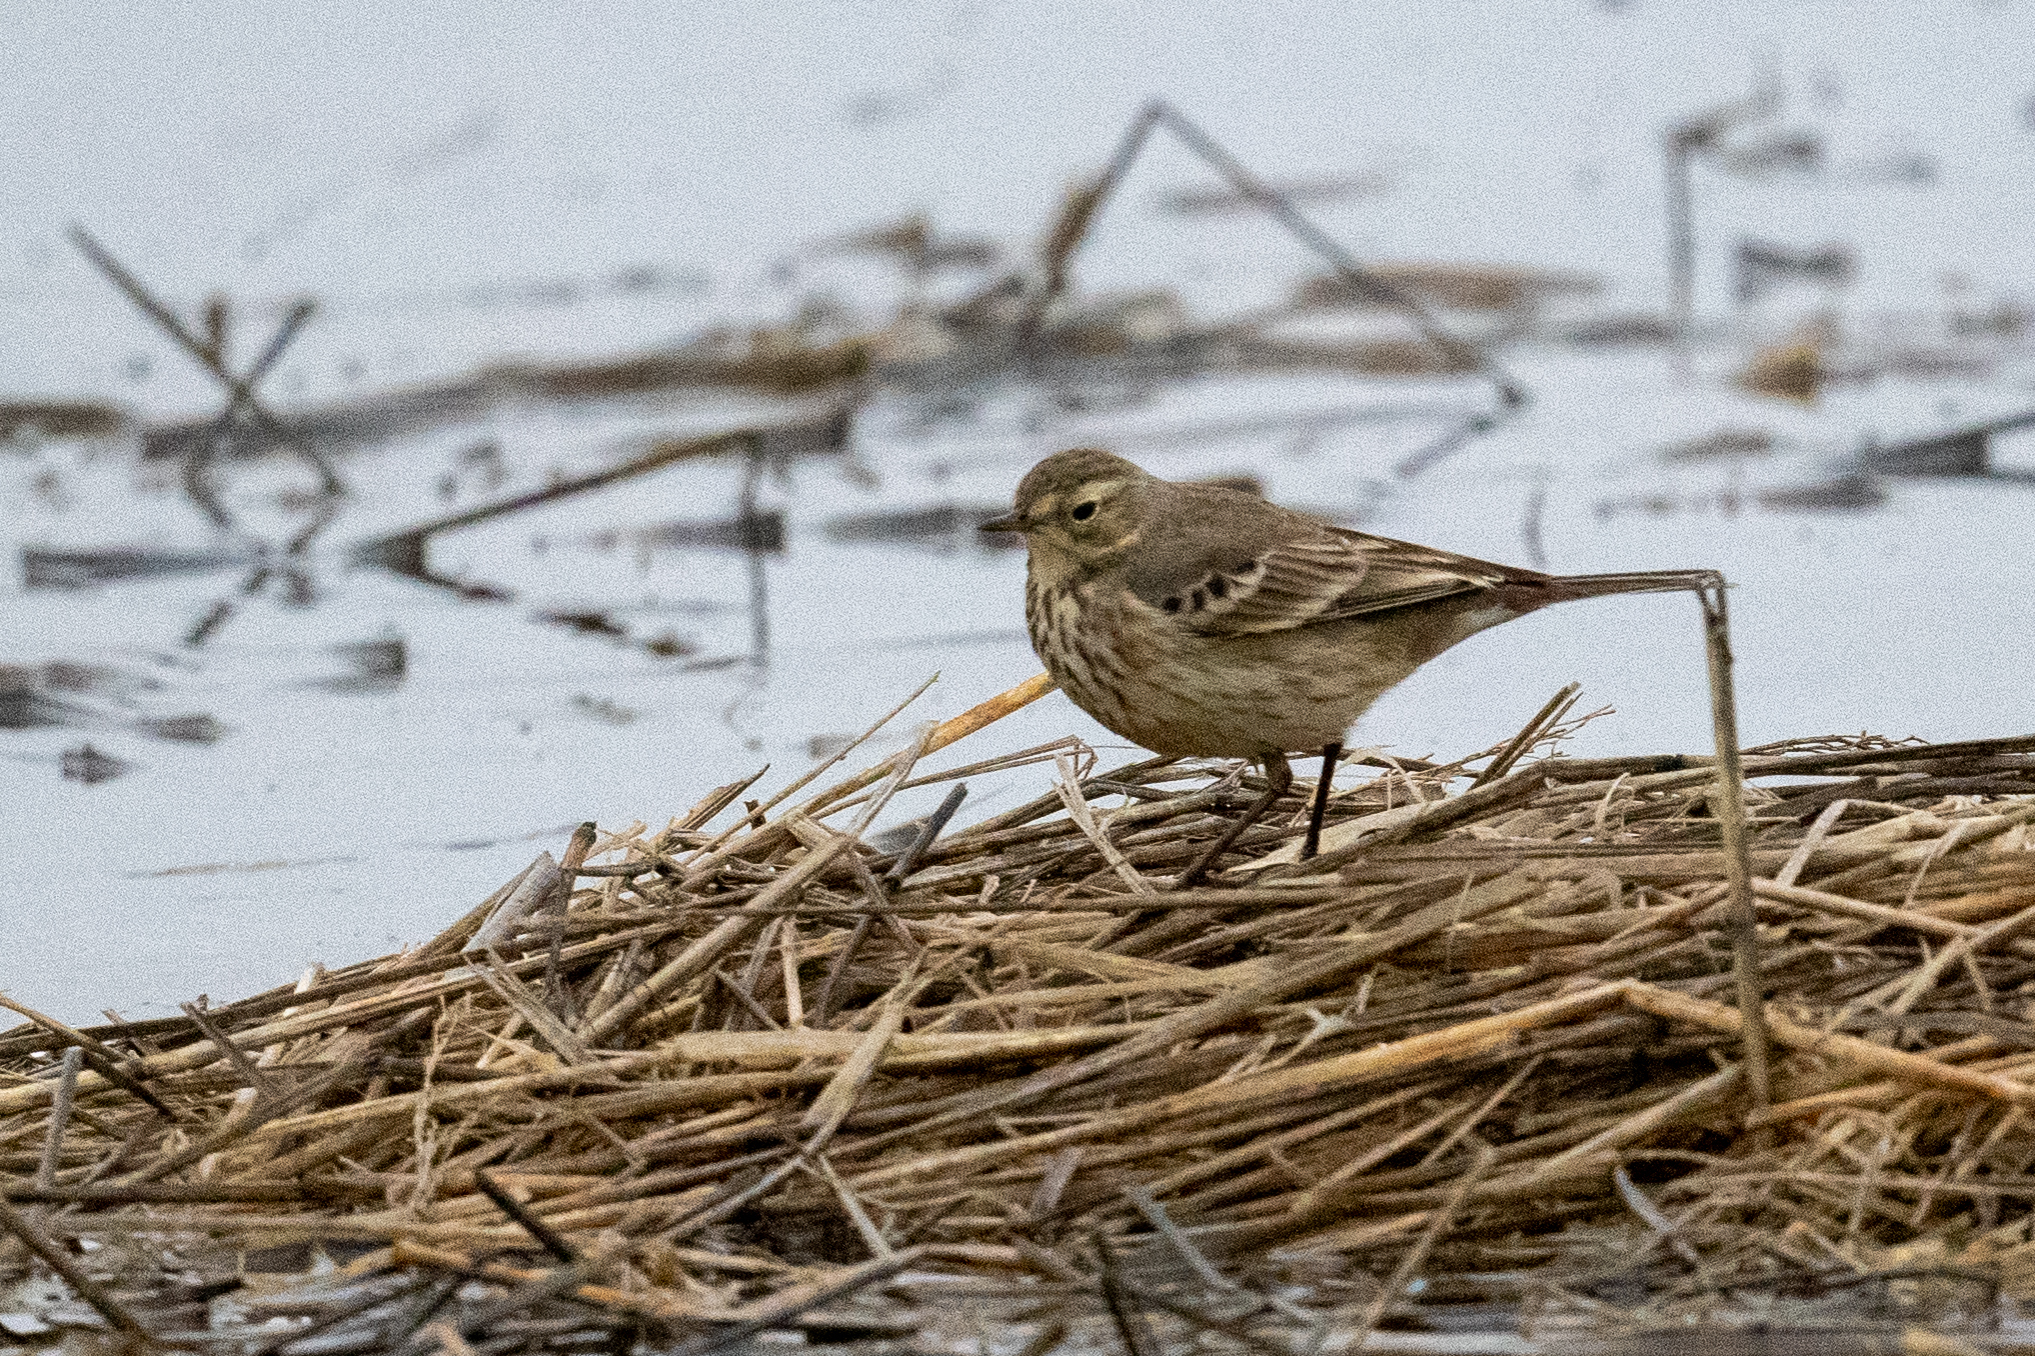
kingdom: Animalia
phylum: Chordata
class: Aves
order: Passeriformes
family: Motacillidae
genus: Anthus
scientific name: Anthus rubescens
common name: Buff-bellied pipit
